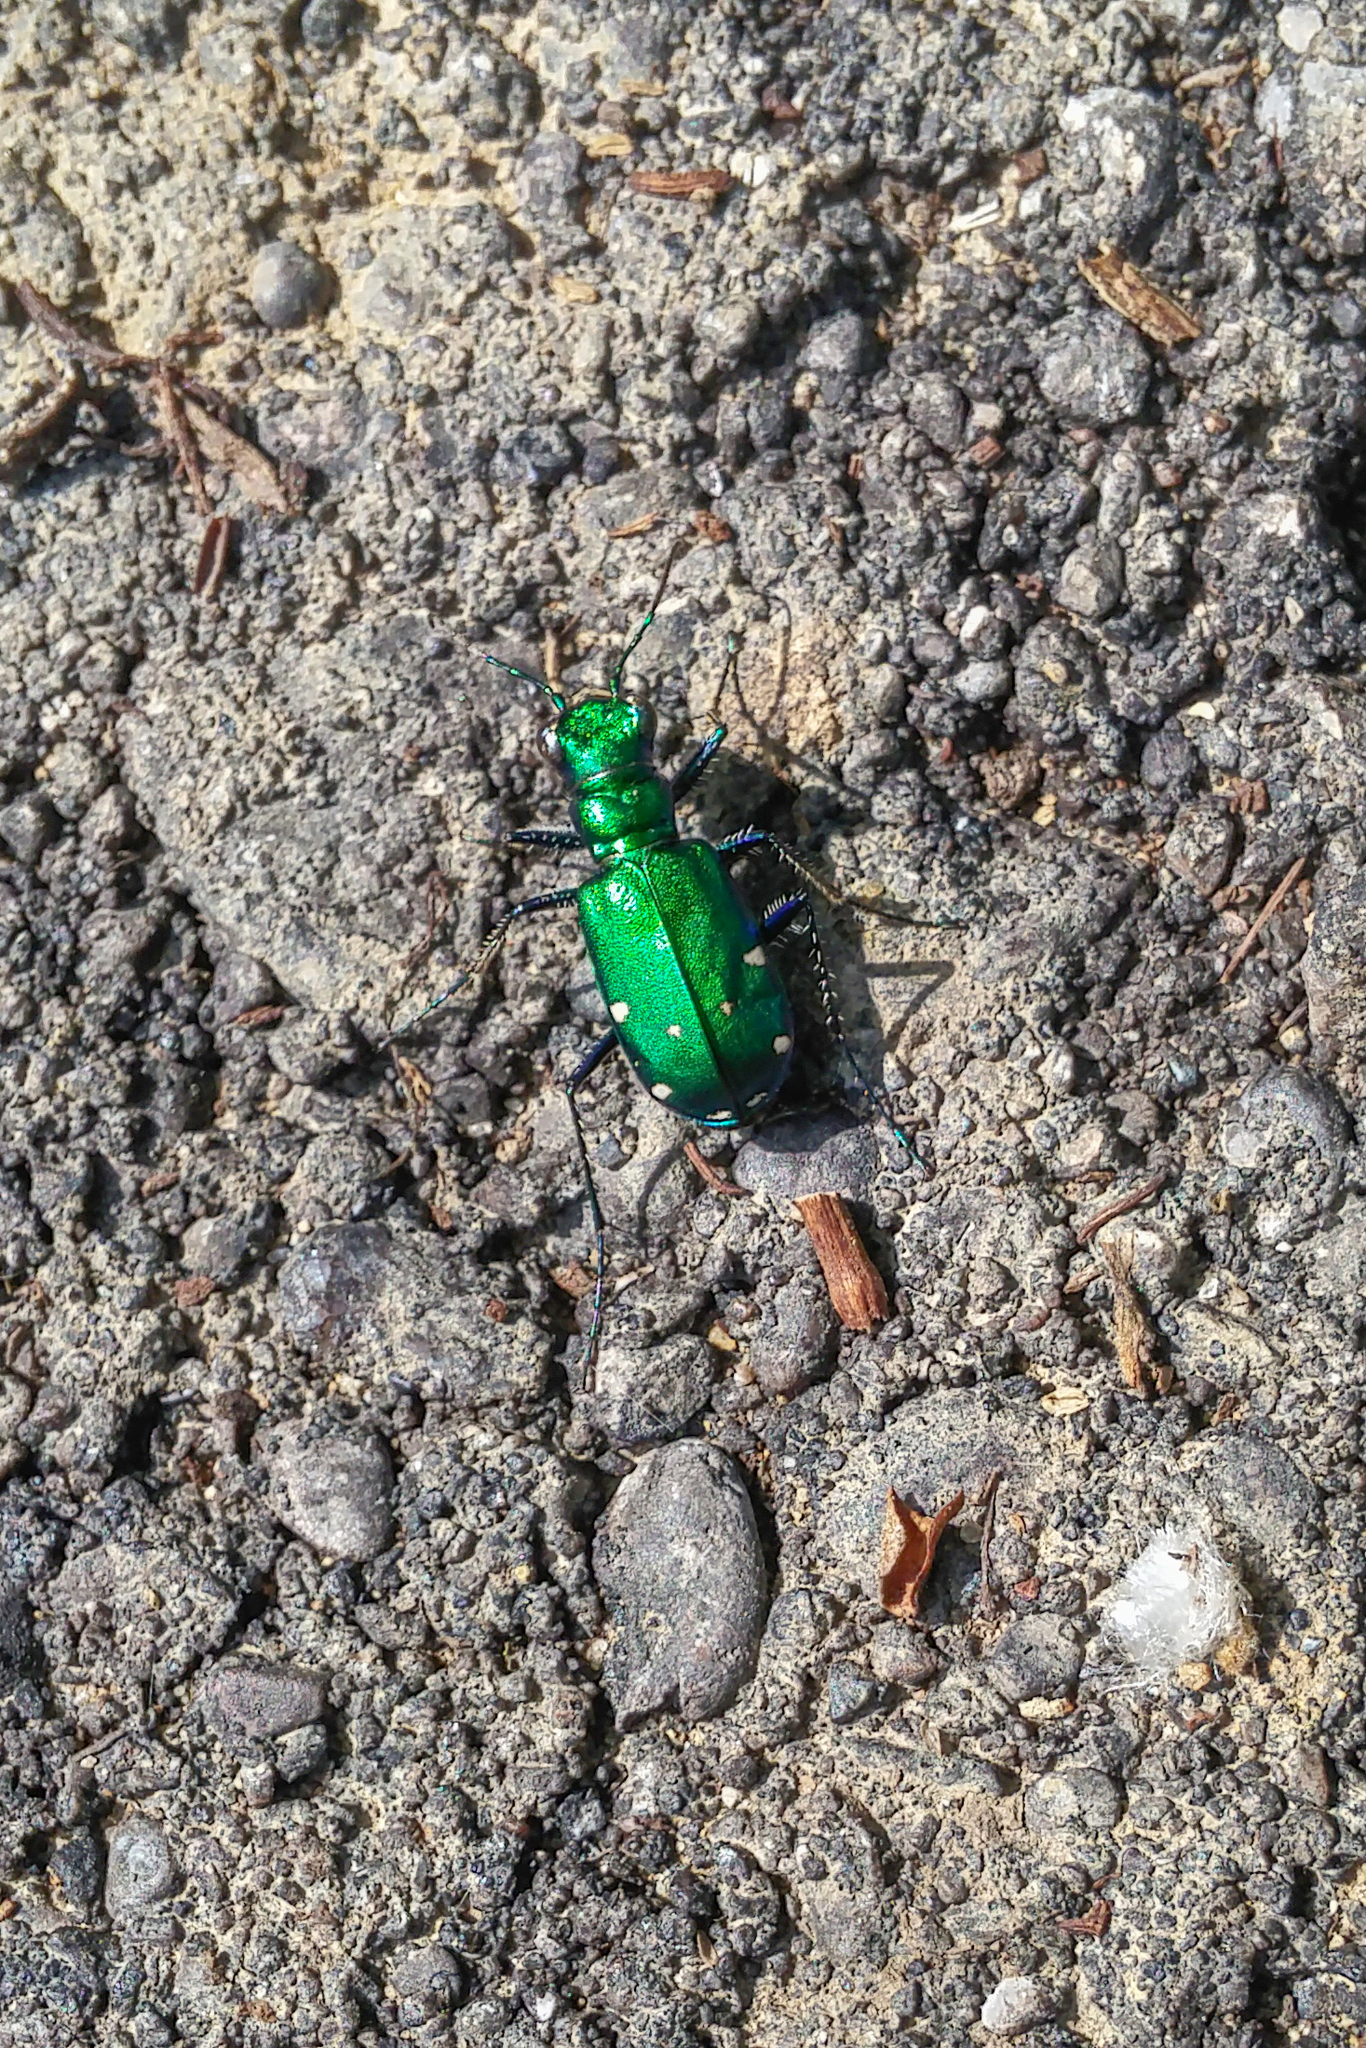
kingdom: Animalia
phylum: Arthropoda
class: Insecta
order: Coleoptera
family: Carabidae
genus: Cicindela
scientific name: Cicindela sexguttata
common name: Six-spotted tiger beetle
